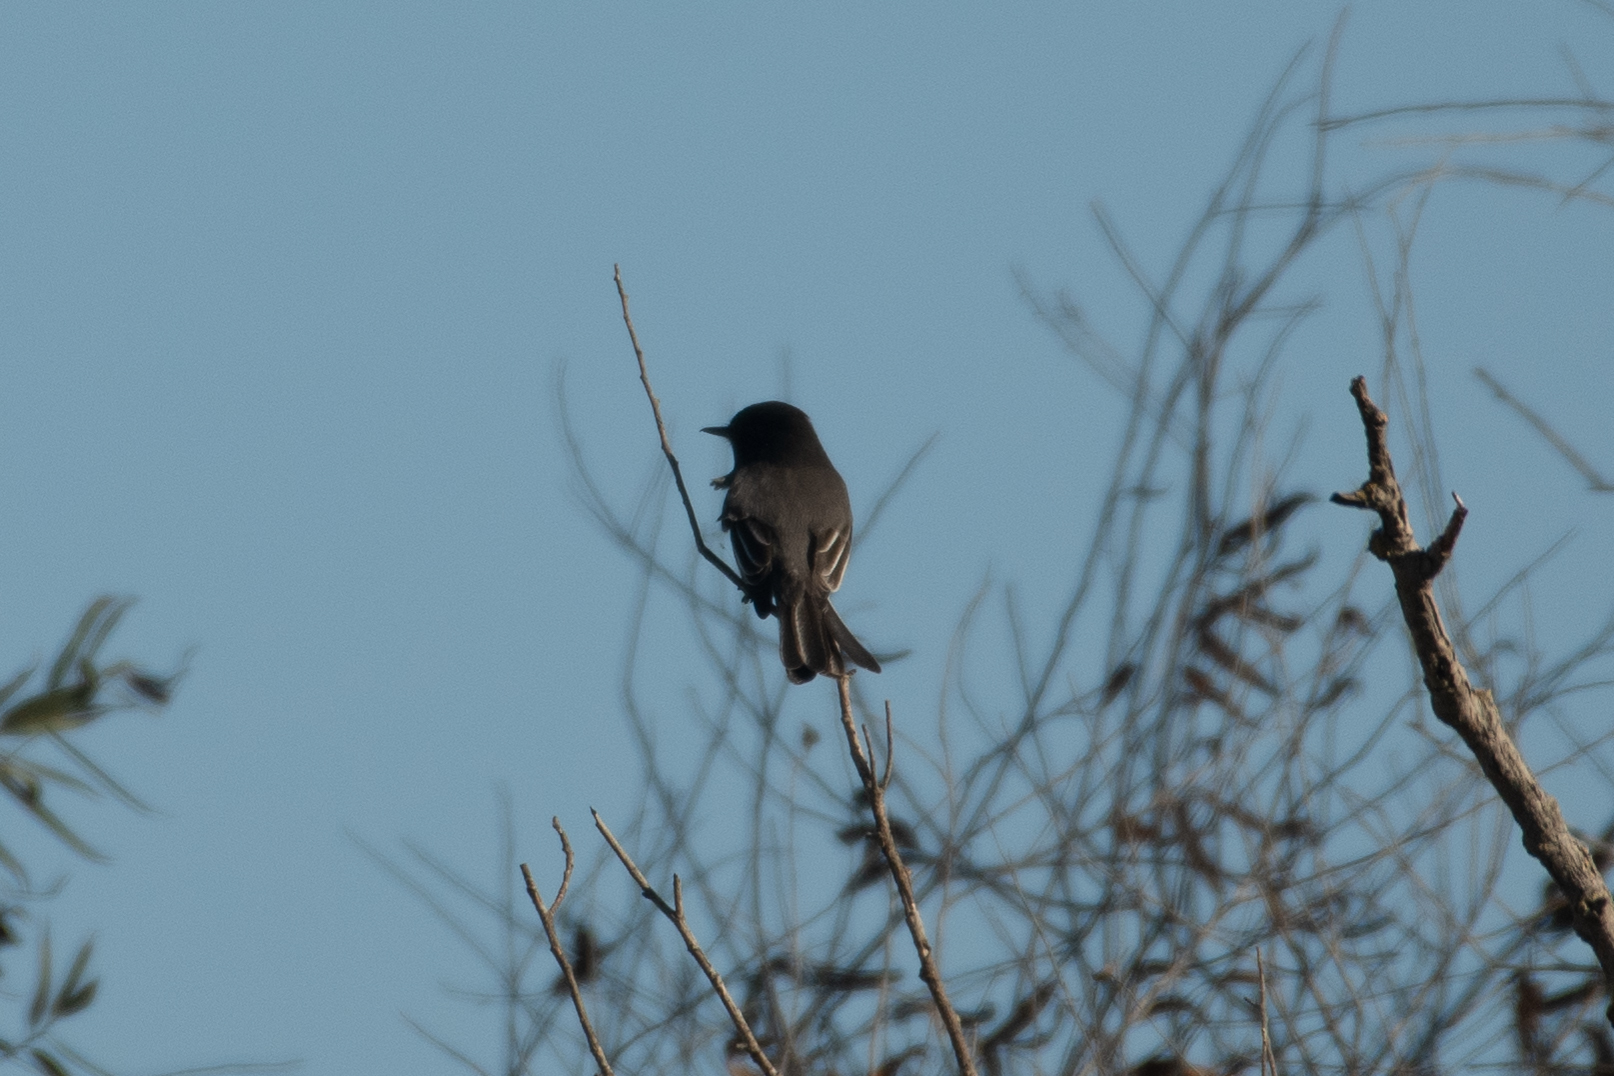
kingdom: Animalia
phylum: Chordata
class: Aves
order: Passeriformes
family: Tyrannidae
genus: Sayornis
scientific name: Sayornis nigricans
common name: Black phoebe
